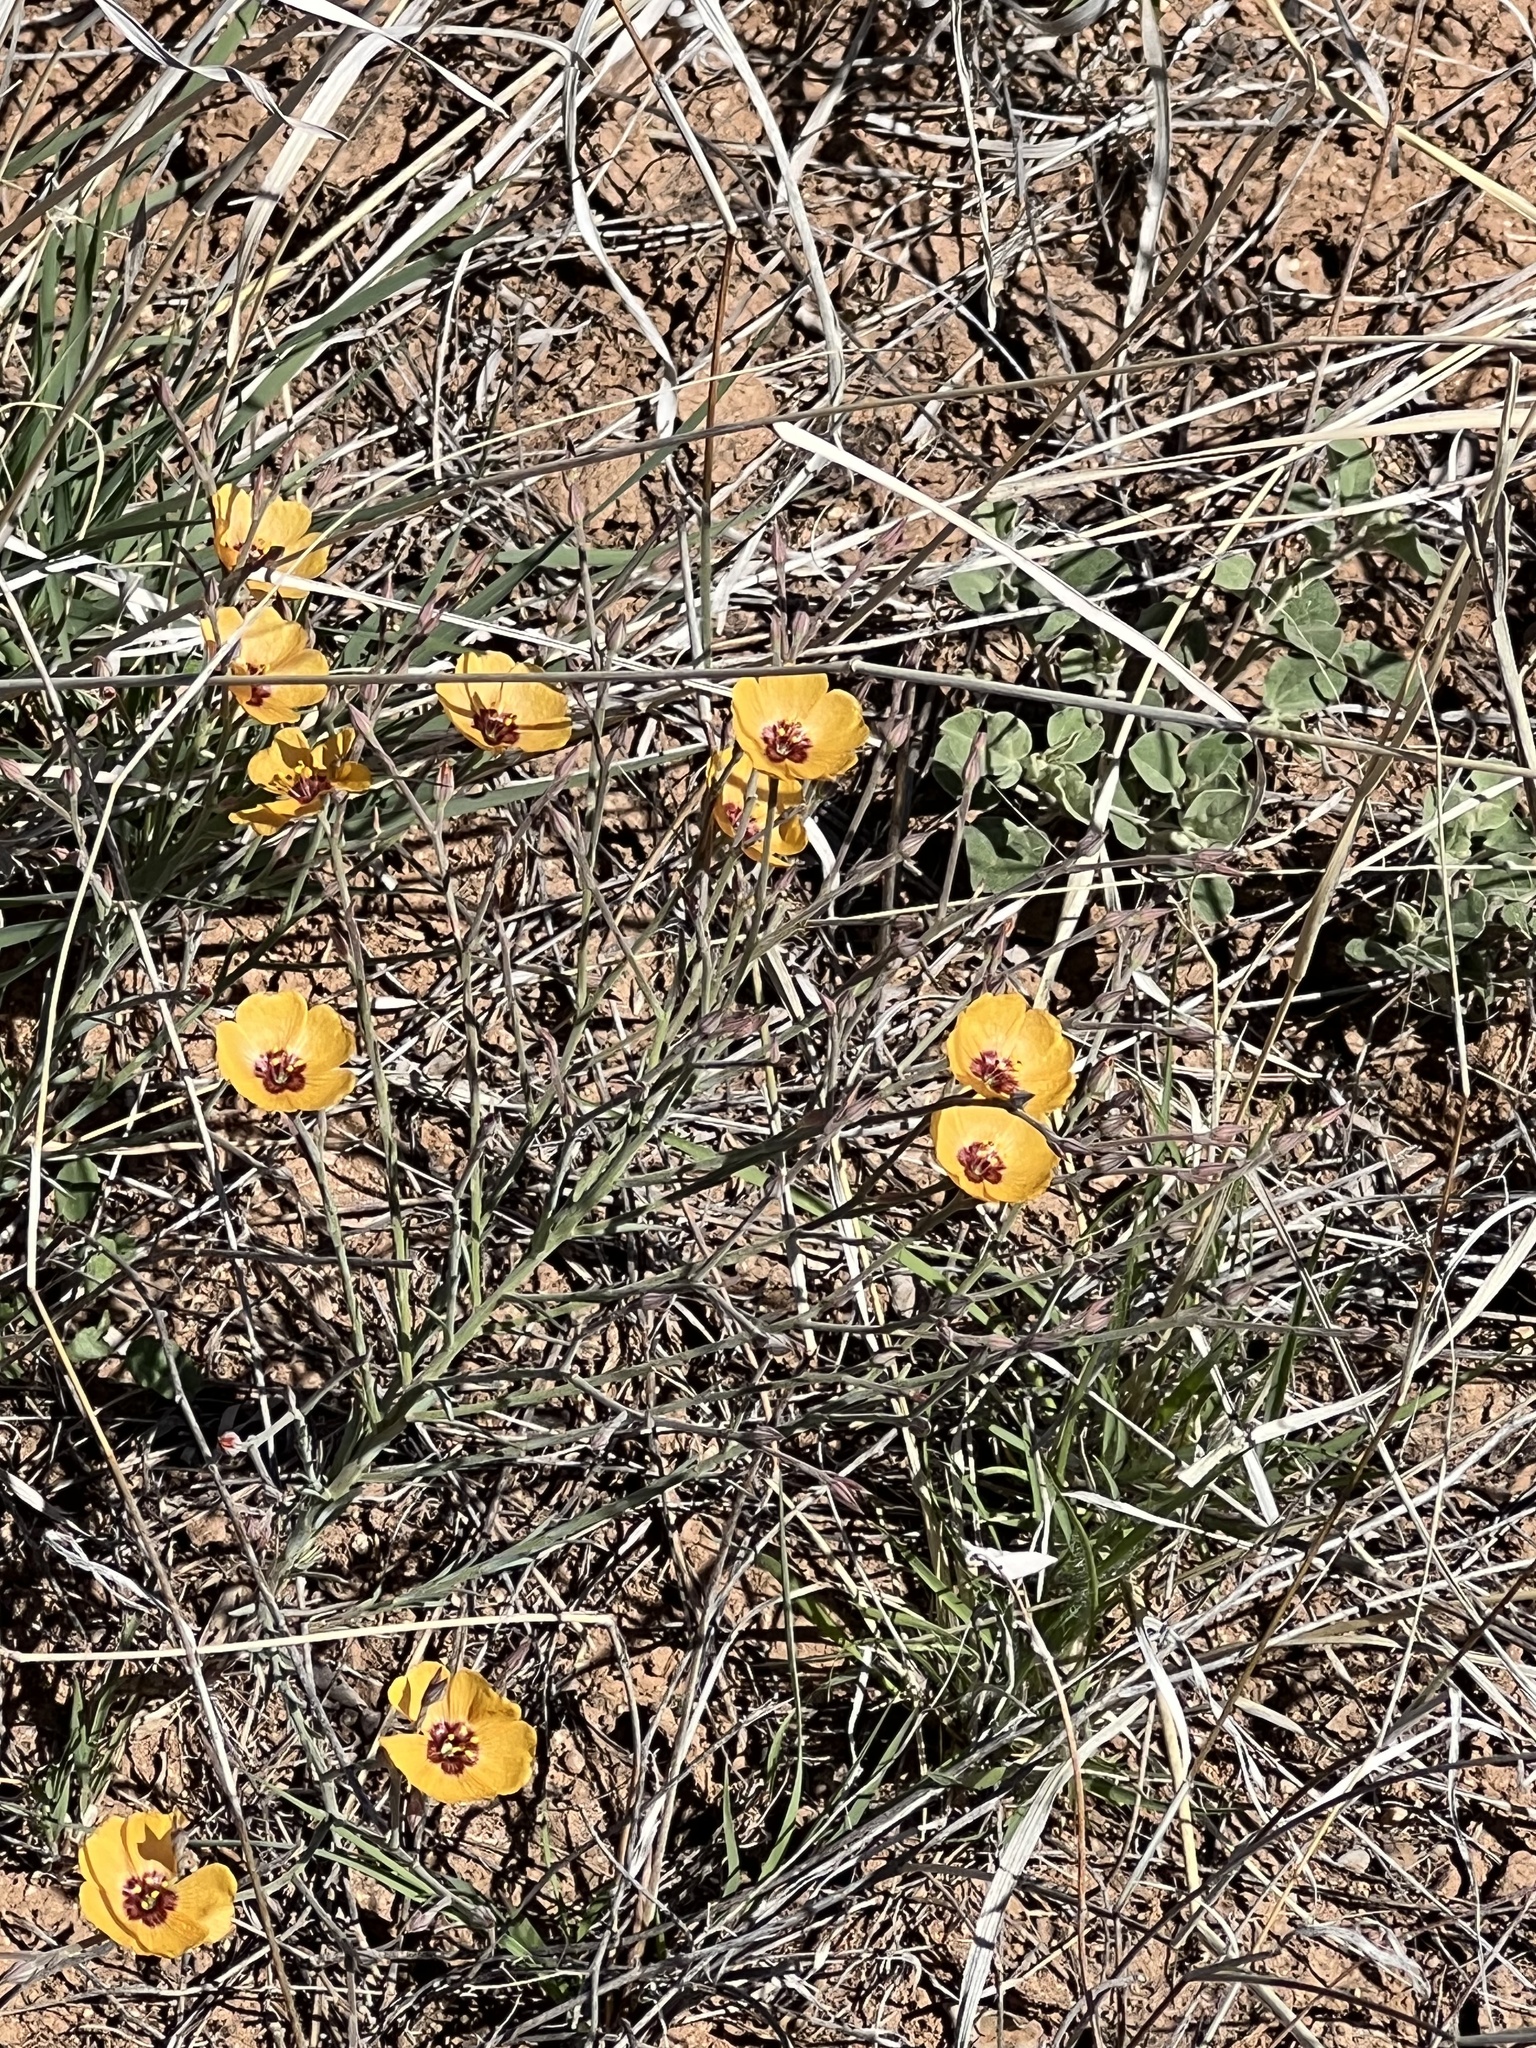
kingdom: Plantae
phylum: Tracheophyta
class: Magnoliopsida
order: Malpighiales
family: Linaceae
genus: Linum
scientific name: Linum puberulum
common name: Plains flax
